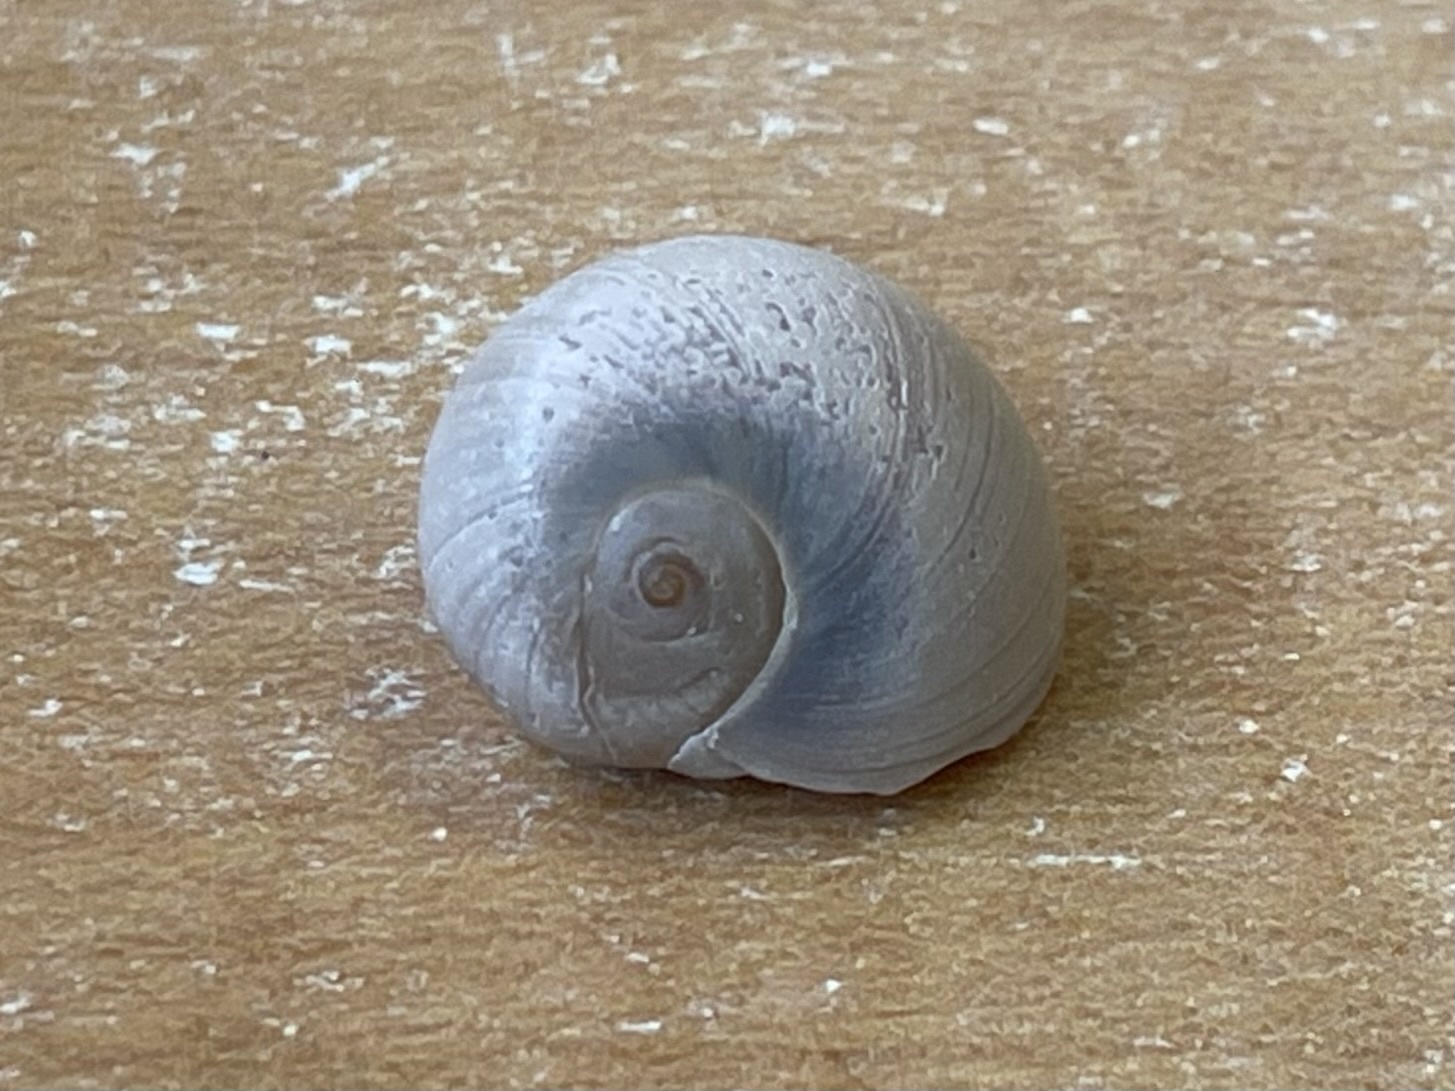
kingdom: Animalia
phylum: Mollusca
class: Gastropoda
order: Littorinimorpha
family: Naticidae
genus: Neverita
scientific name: Neverita duplicata
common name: Lobed moonsnail
